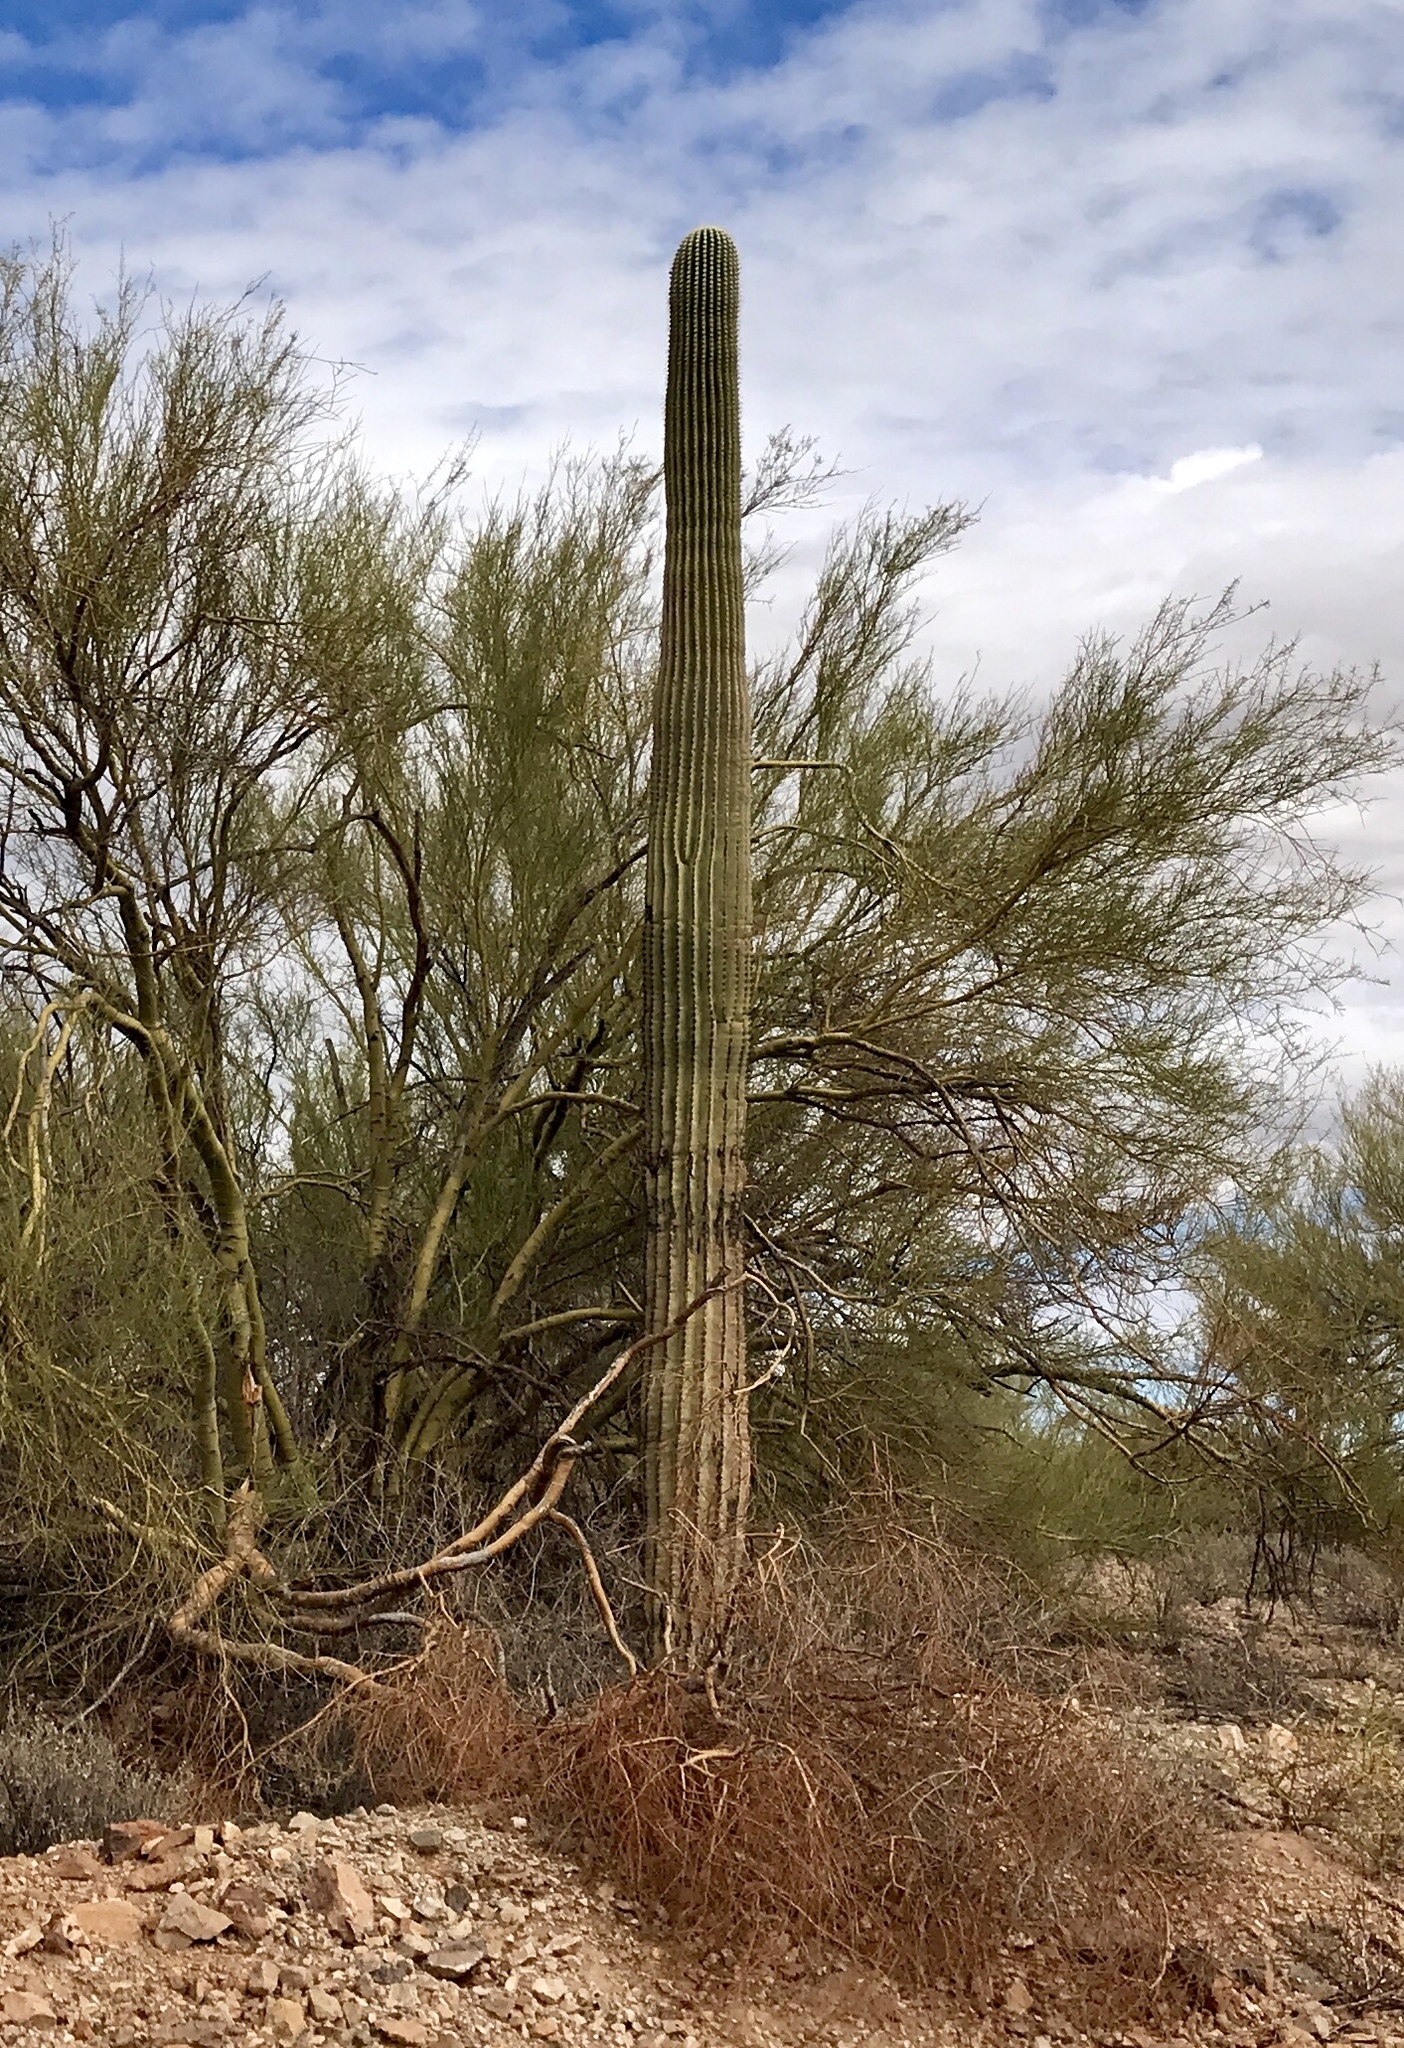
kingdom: Plantae
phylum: Tracheophyta
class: Magnoliopsida
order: Caryophyllales
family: Cactaceae
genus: Carnegiea
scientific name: Carnegiea gigantea
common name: Saguaro
